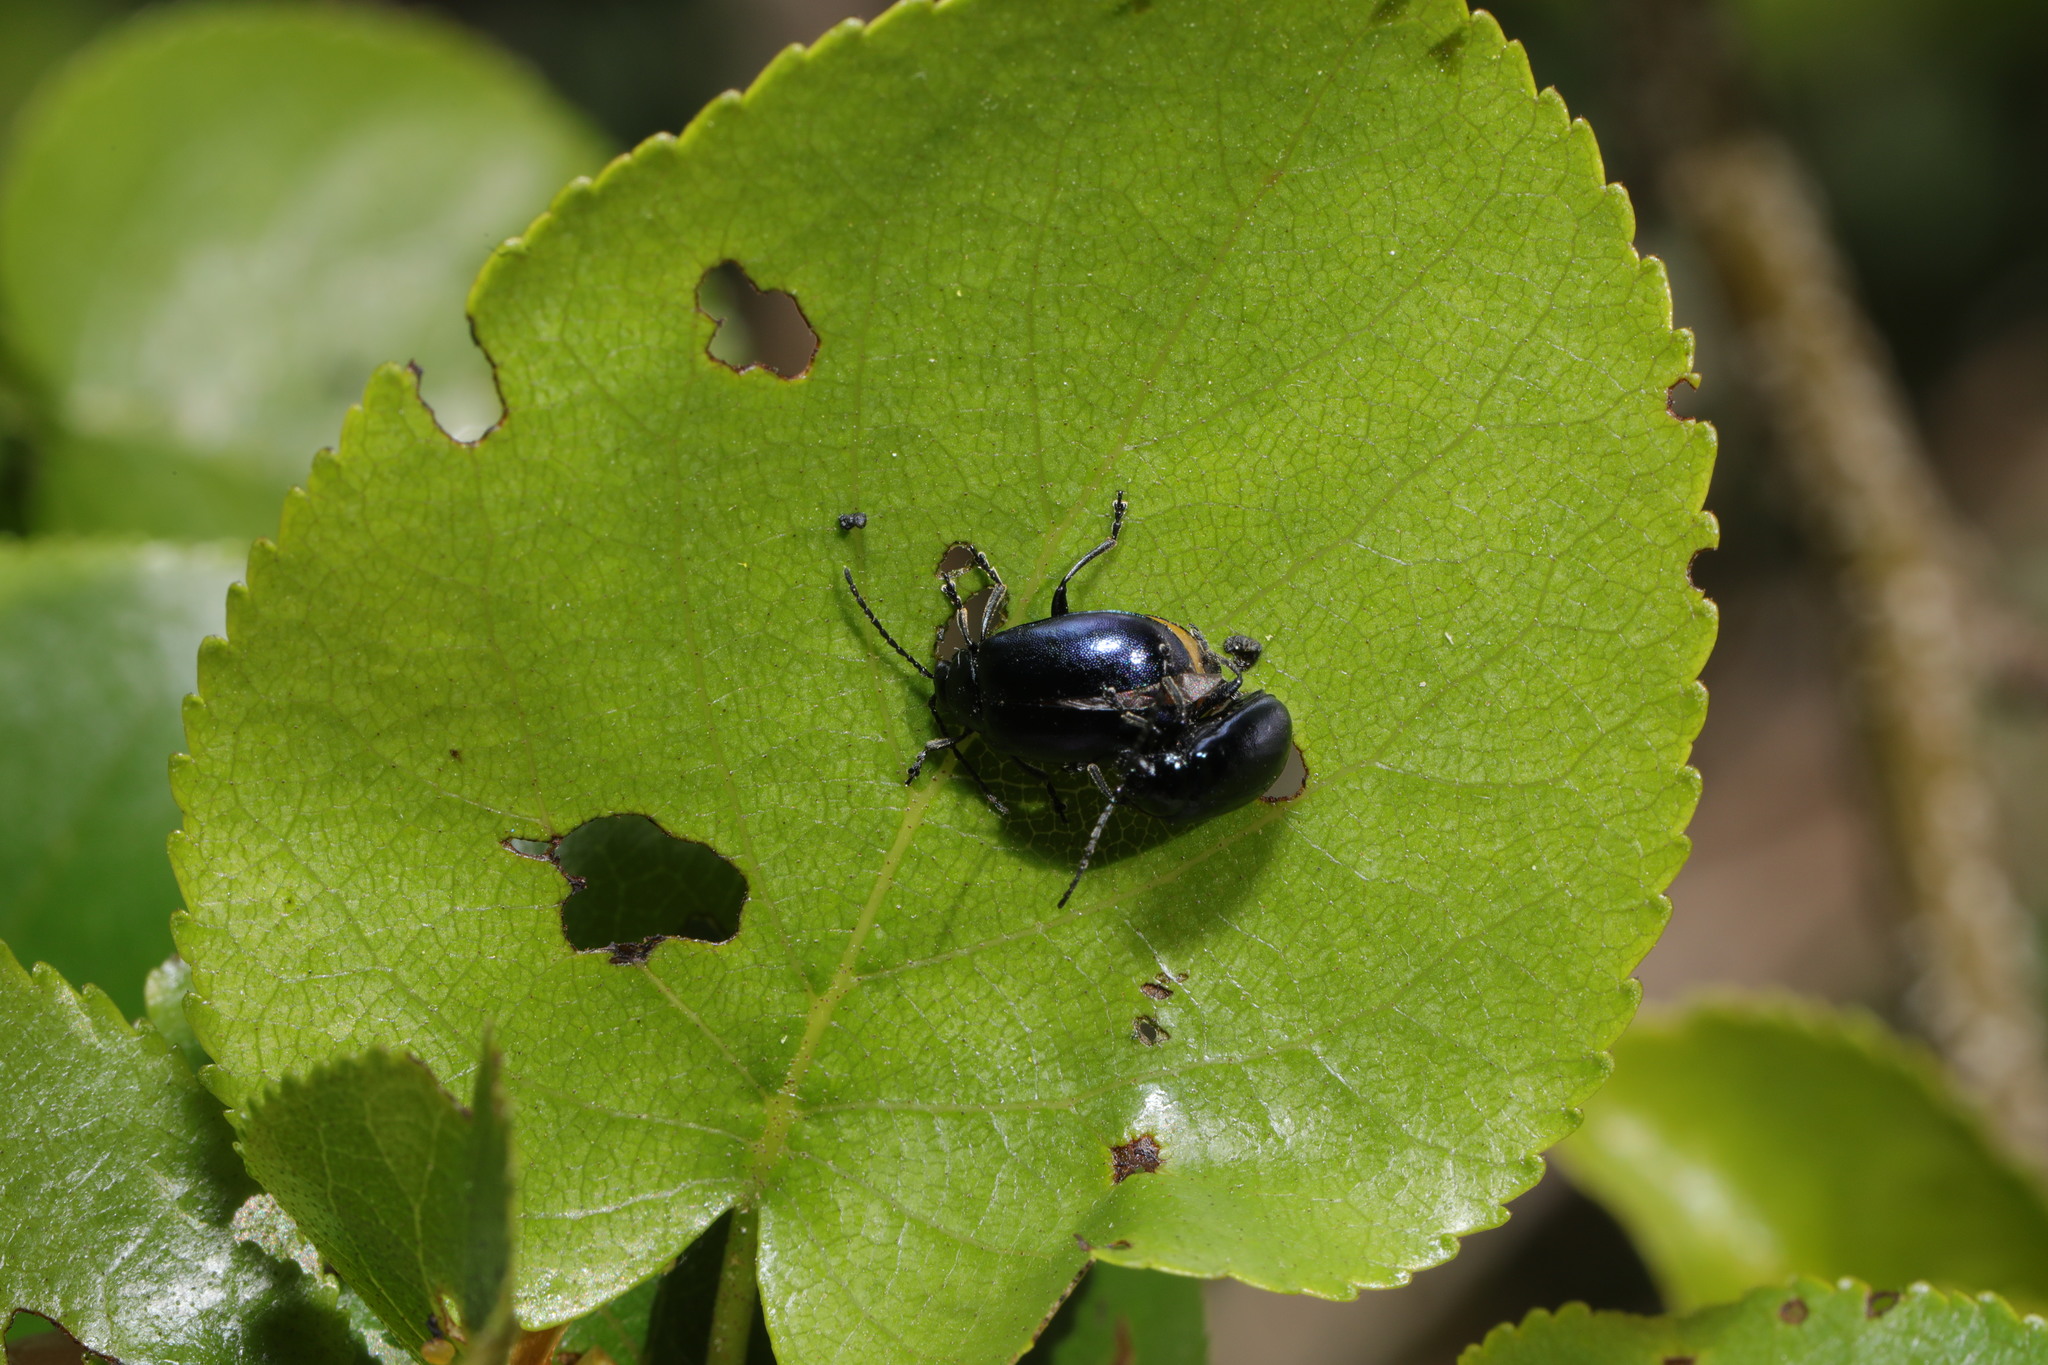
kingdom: Animalia
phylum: Arthropoda
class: Insecta
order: Coleoptera
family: Chrysomelidae
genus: Agelastica
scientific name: Agelastica alni
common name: Alder leaf beetle
